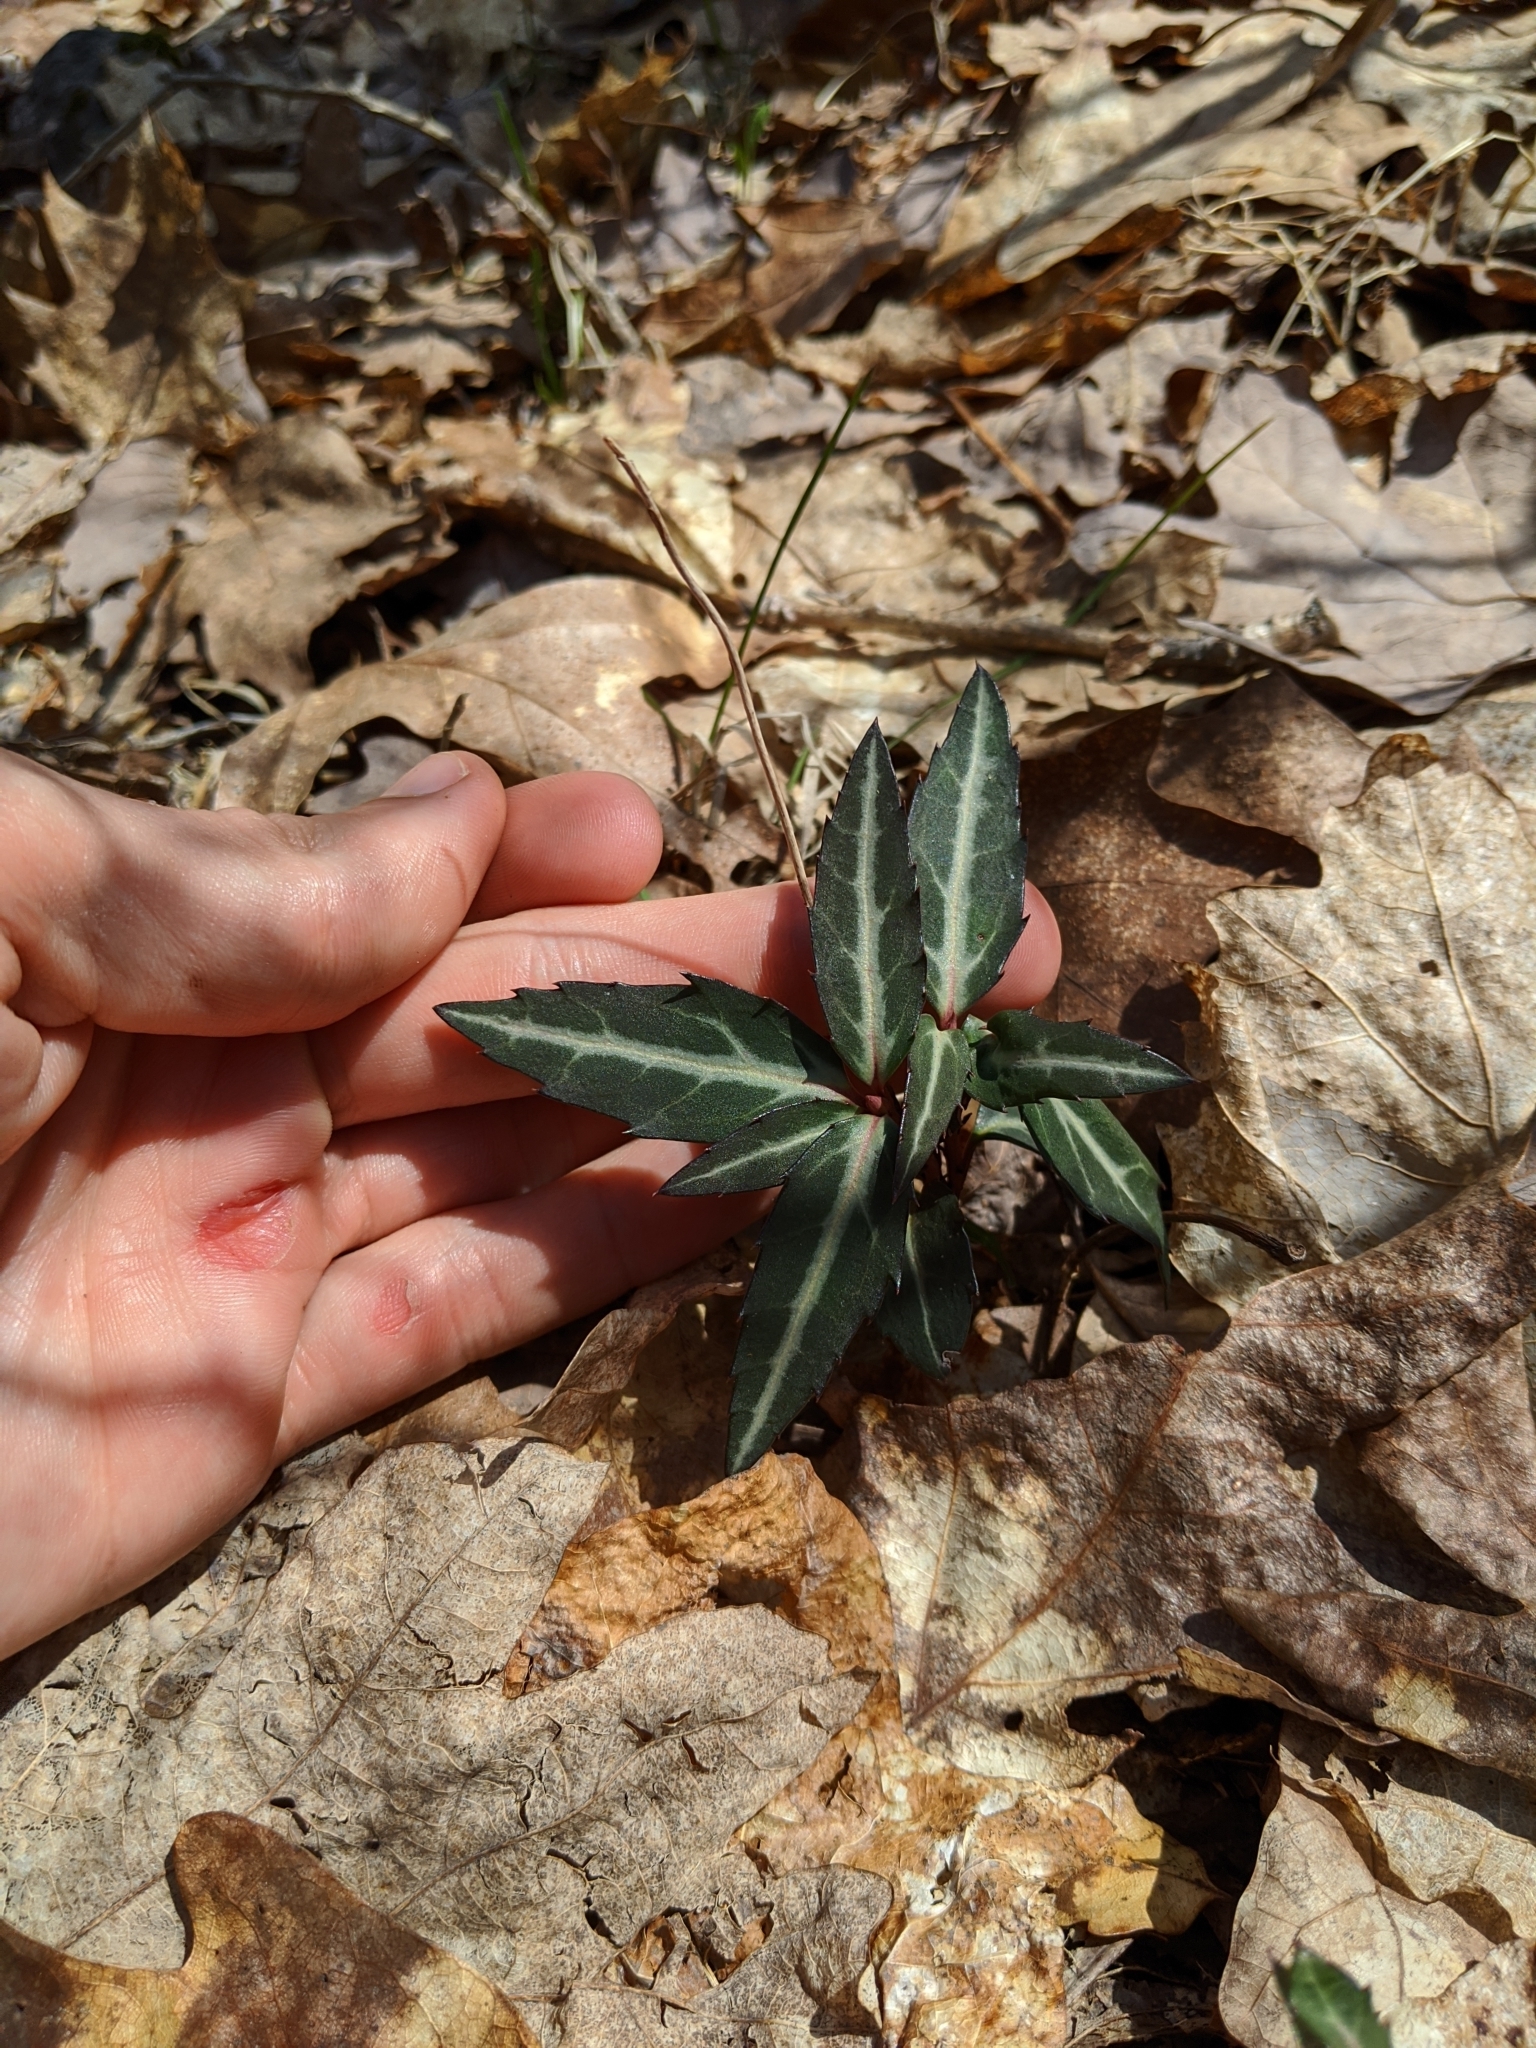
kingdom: Plantae
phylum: Tracheophyta
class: Magnoliopsida
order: Ericales
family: Ericaceae
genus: Chimaphila
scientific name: Chimaphila maculata
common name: Spotted pipsissewa
